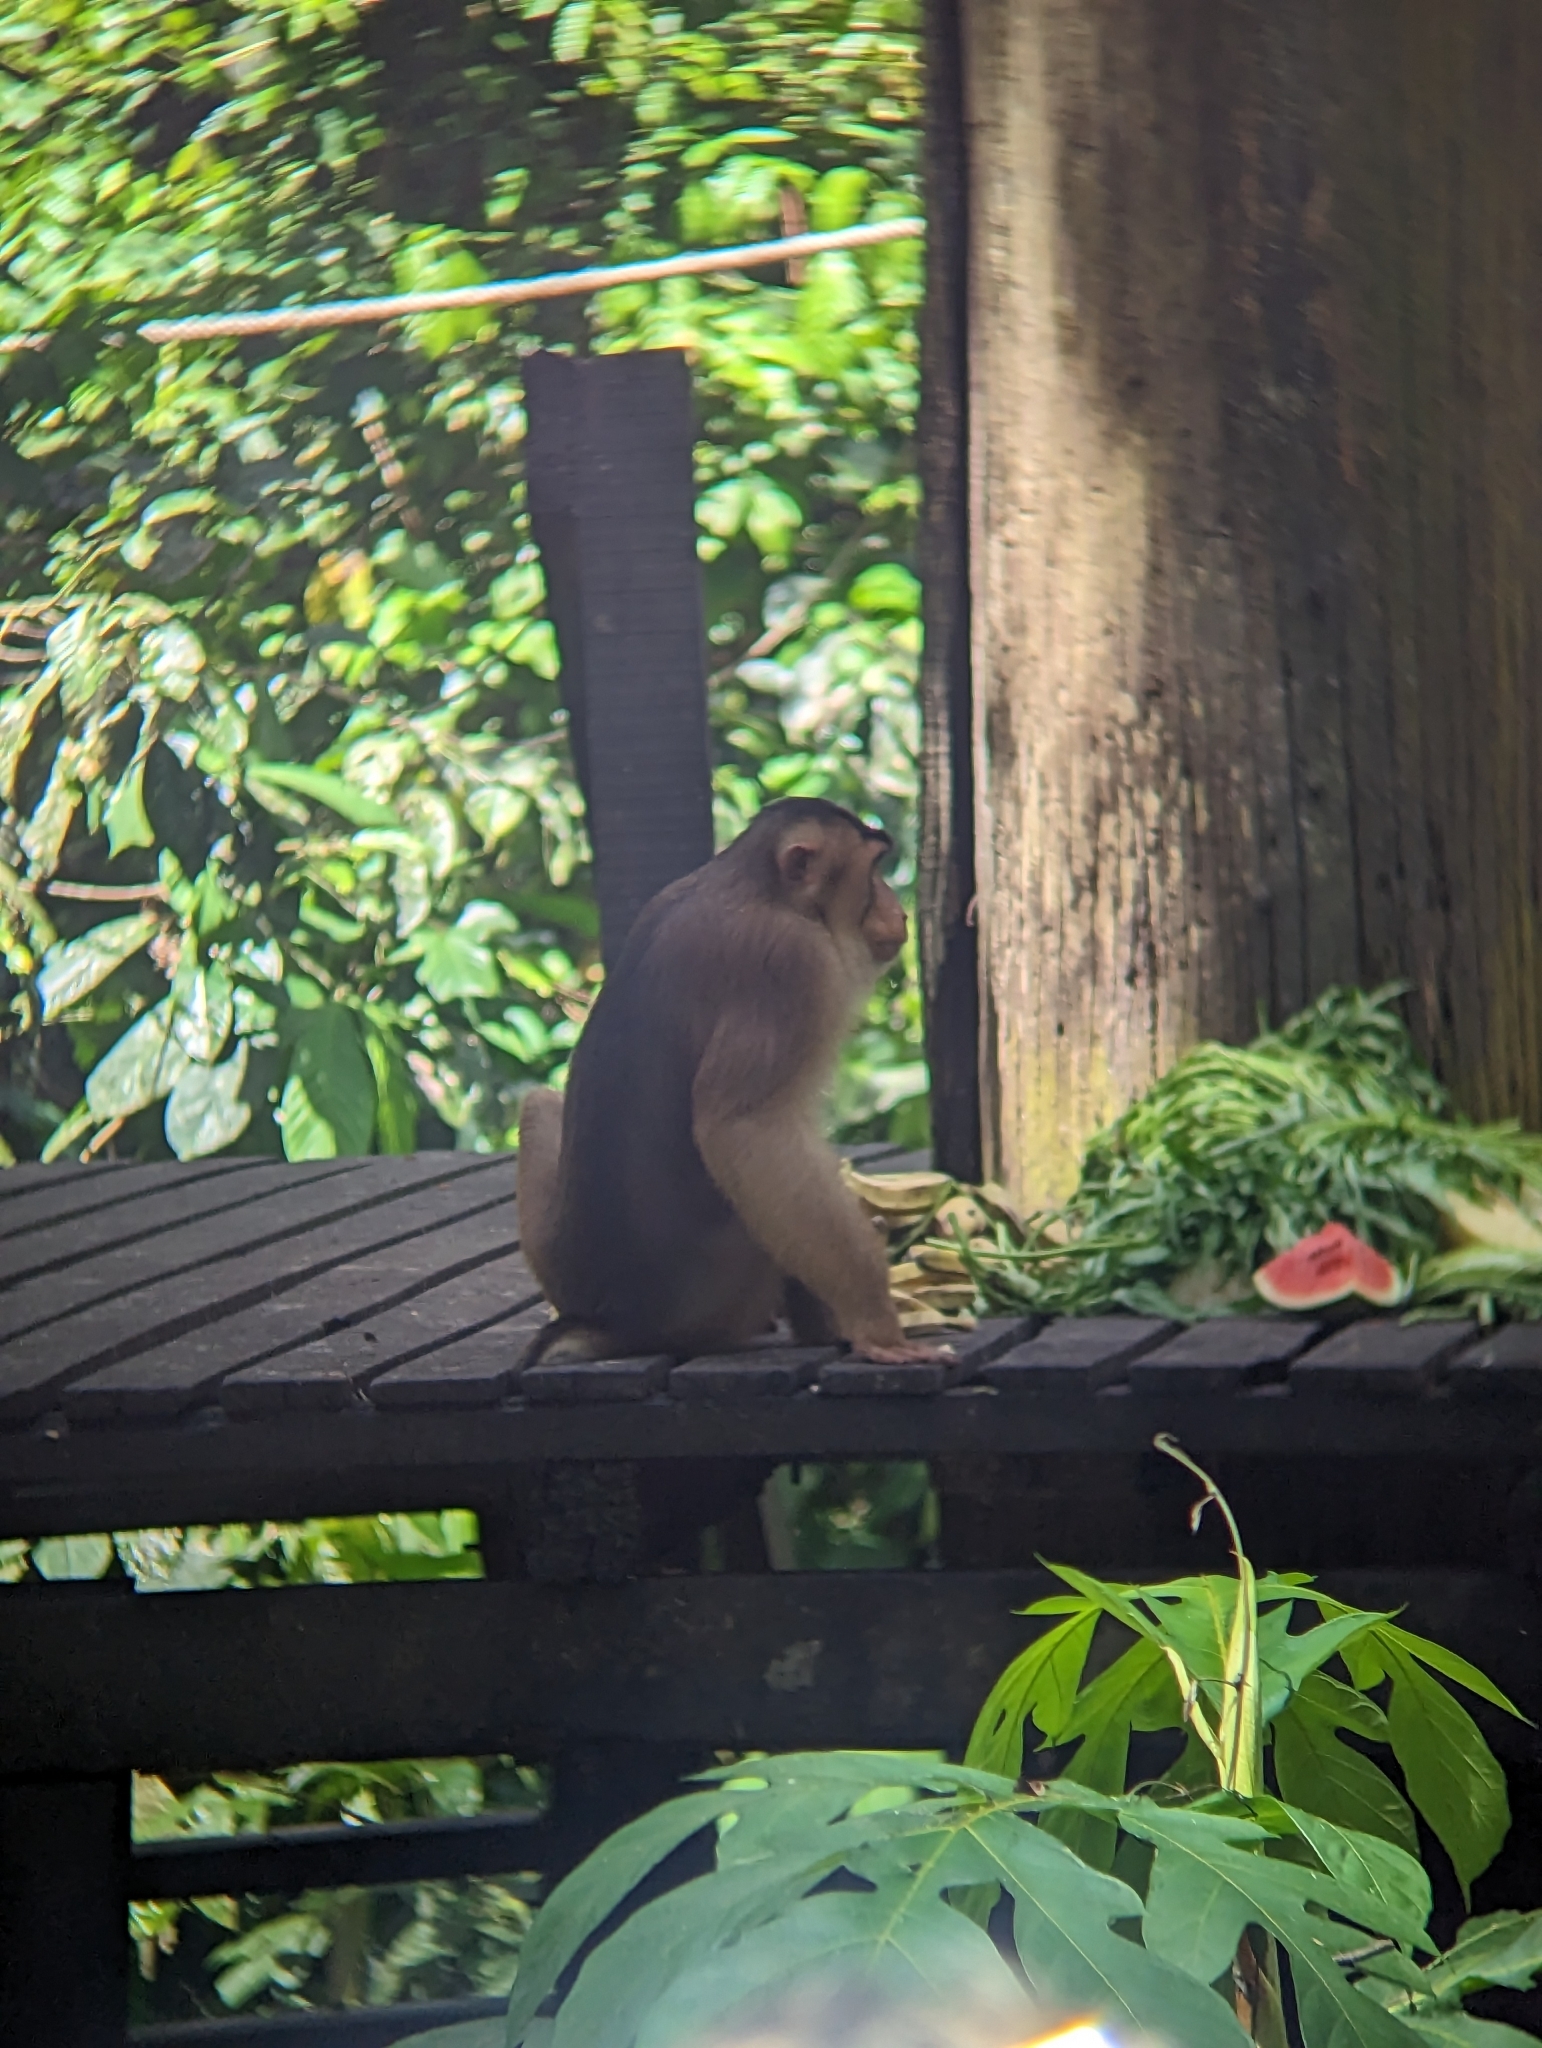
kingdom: Animalia
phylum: Chordata
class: Mammalia
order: Primates
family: Cercopithecidae
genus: Macaca
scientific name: Macaca nemestrina
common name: Southern pig-tailed macaque
